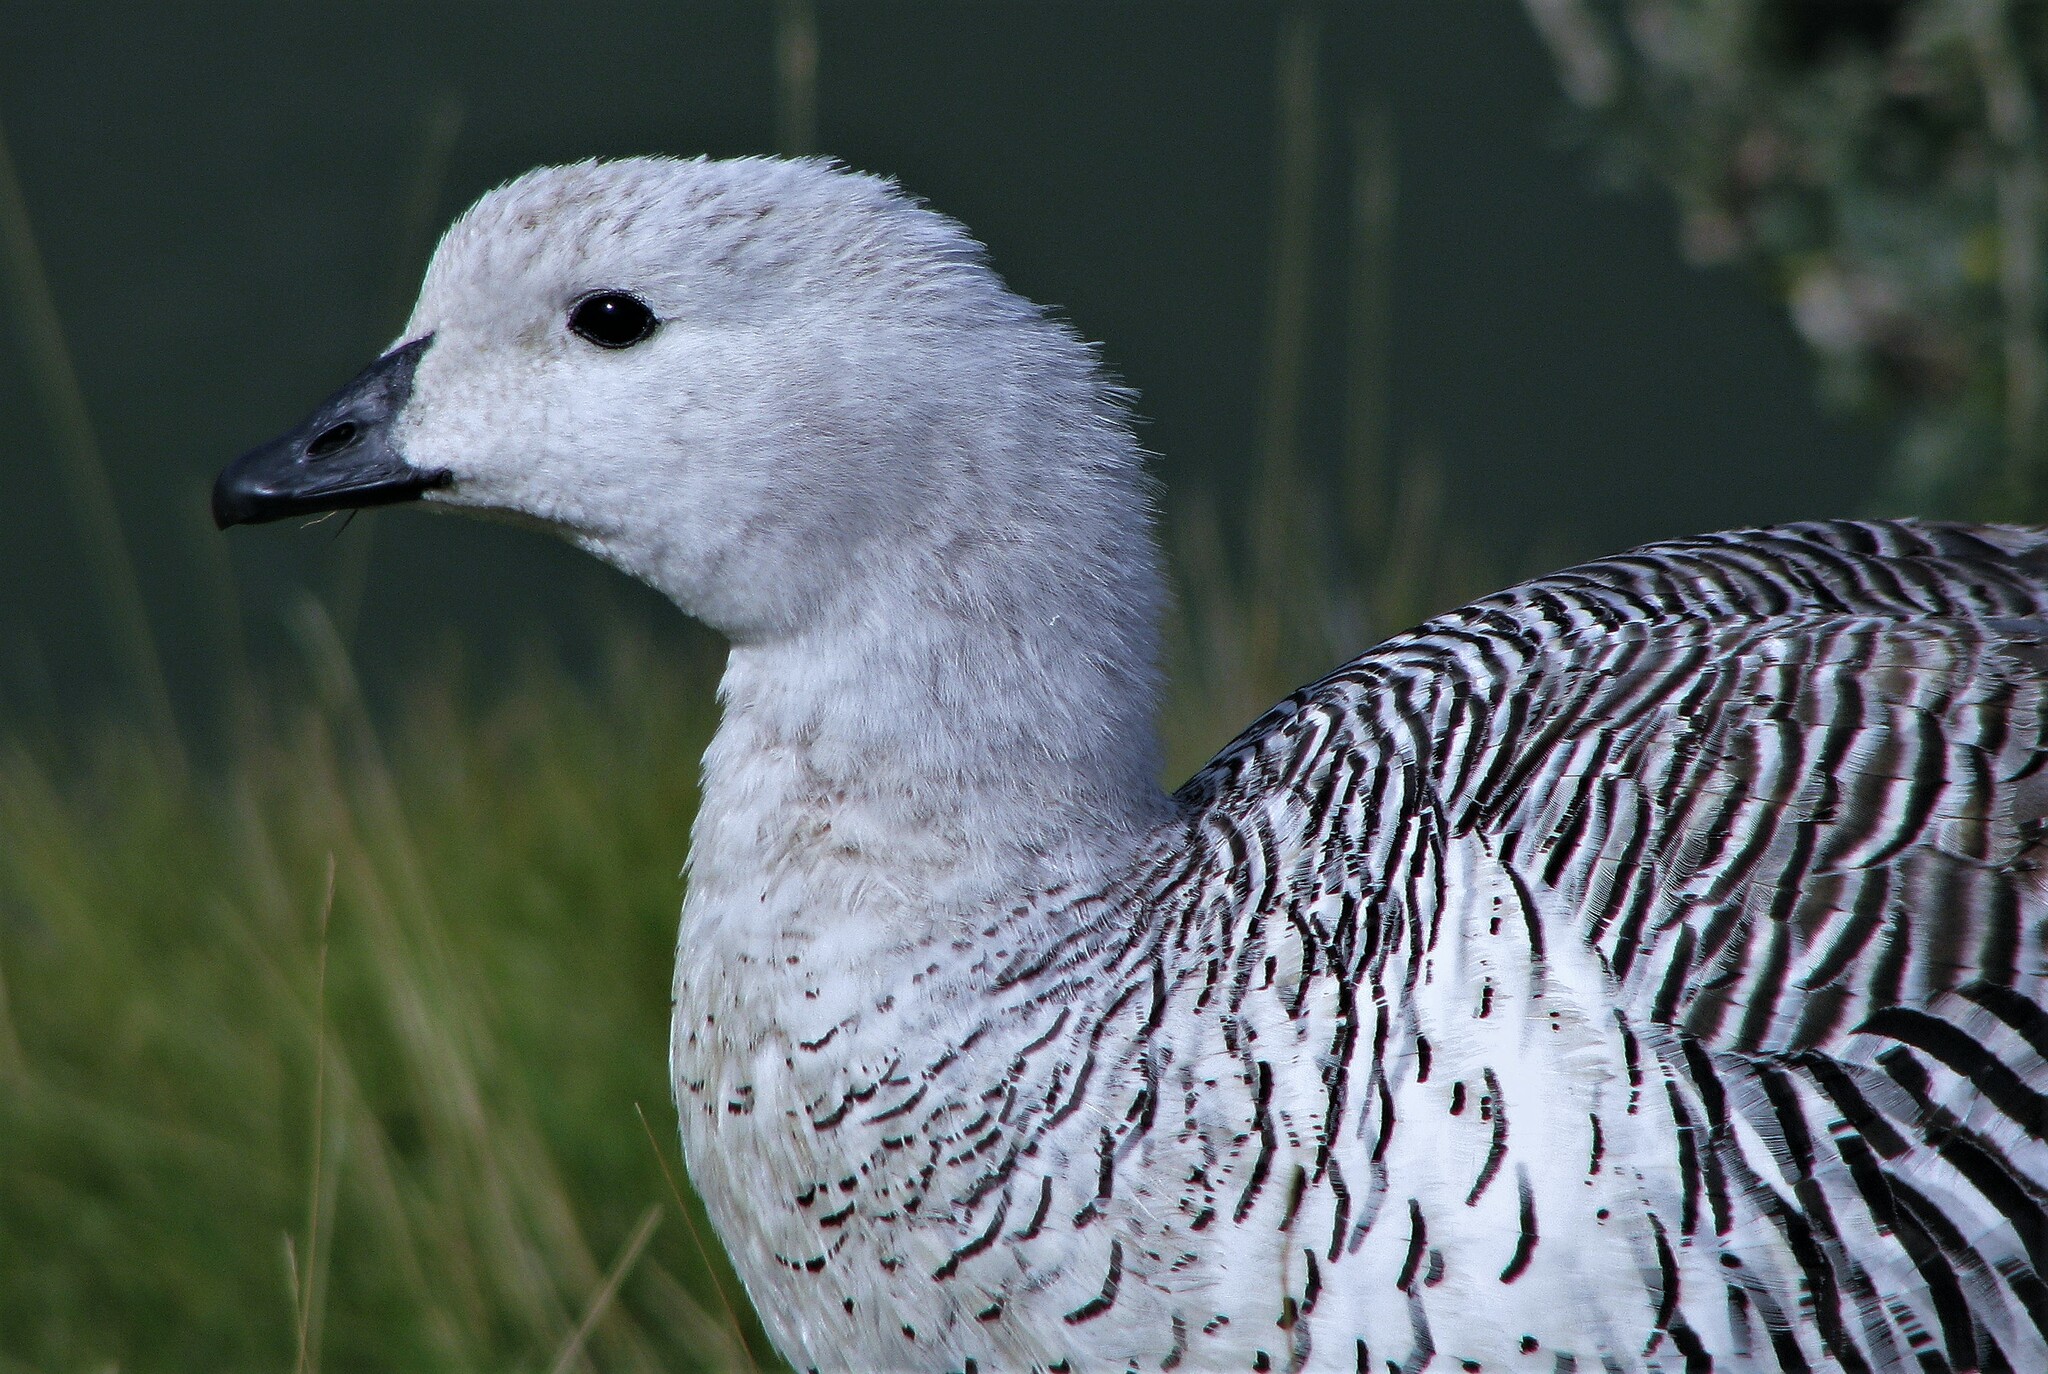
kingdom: Animalia
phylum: Chordata
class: Aves
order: Anseriformes
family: Anatidae
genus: Chloephaga
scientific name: Chloephaga picta
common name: Upland goose
